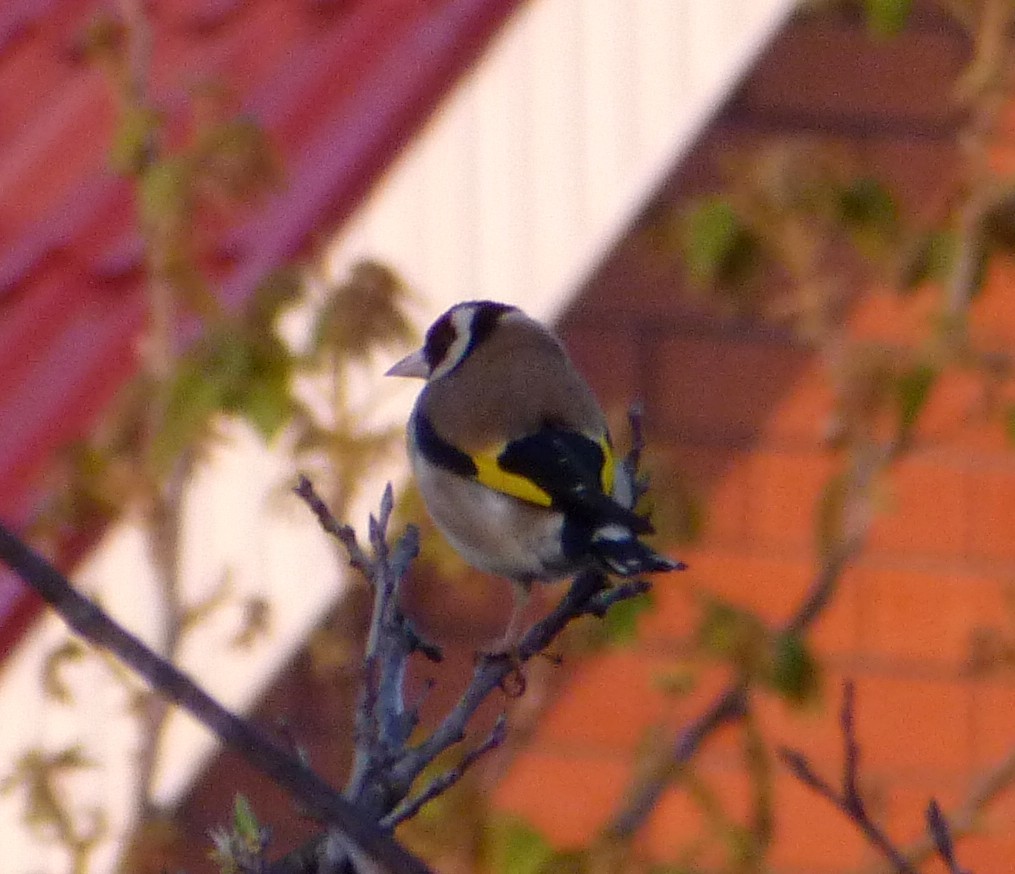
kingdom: Animalia
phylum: Chordata
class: Aves
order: Passeriformes
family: Fringillidae
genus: Carduelis
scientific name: Carduelis carduelis
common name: European goldfinch
